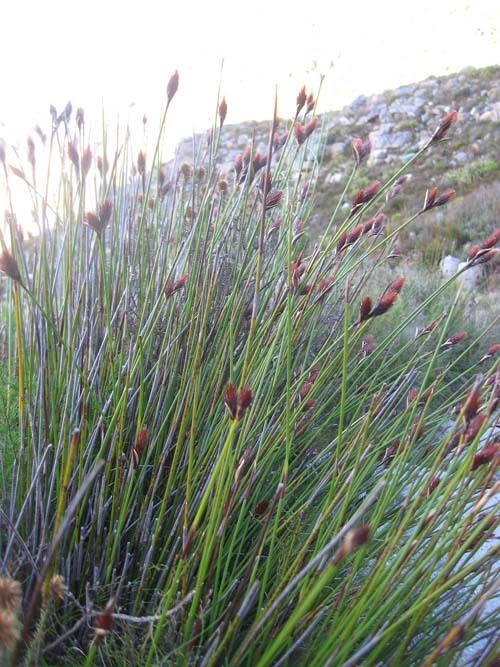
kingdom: Plantae
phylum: Tracheophyta
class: Liliopsida
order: Poales
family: Restionaceae
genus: Hypodiscus
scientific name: Hypodiscus aristatus
